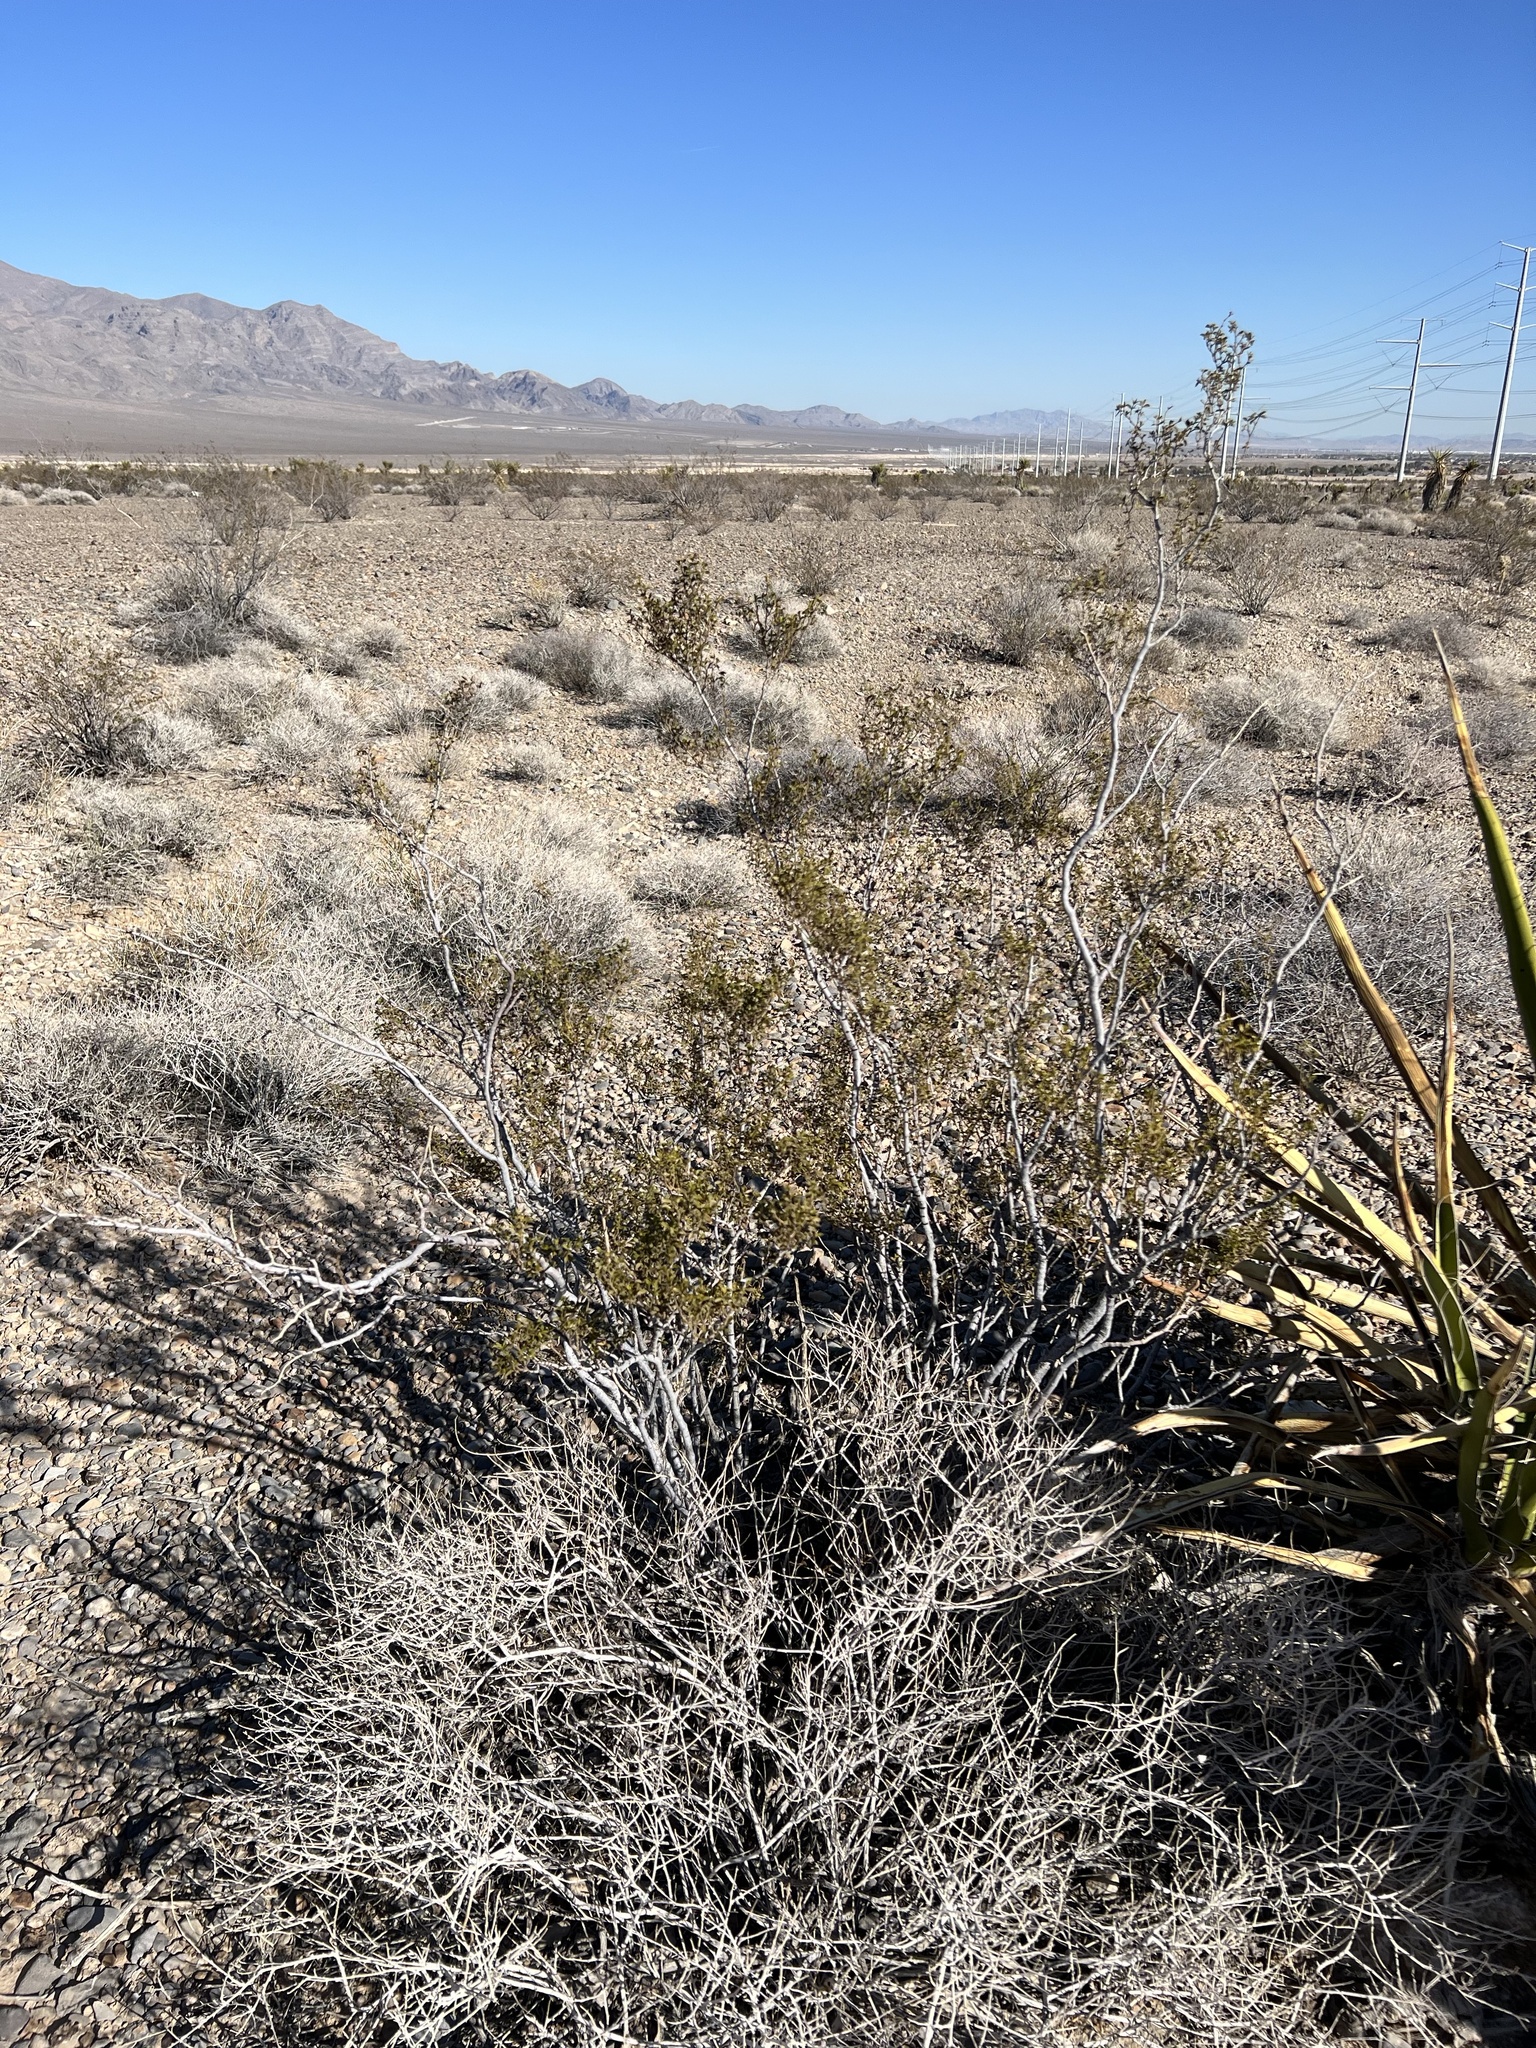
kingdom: Plantae
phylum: Tracheophyta
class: Magnoliopsida
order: Zygophyllales
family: Zygophyllaceae
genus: Larrea
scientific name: Larrea tridentata
